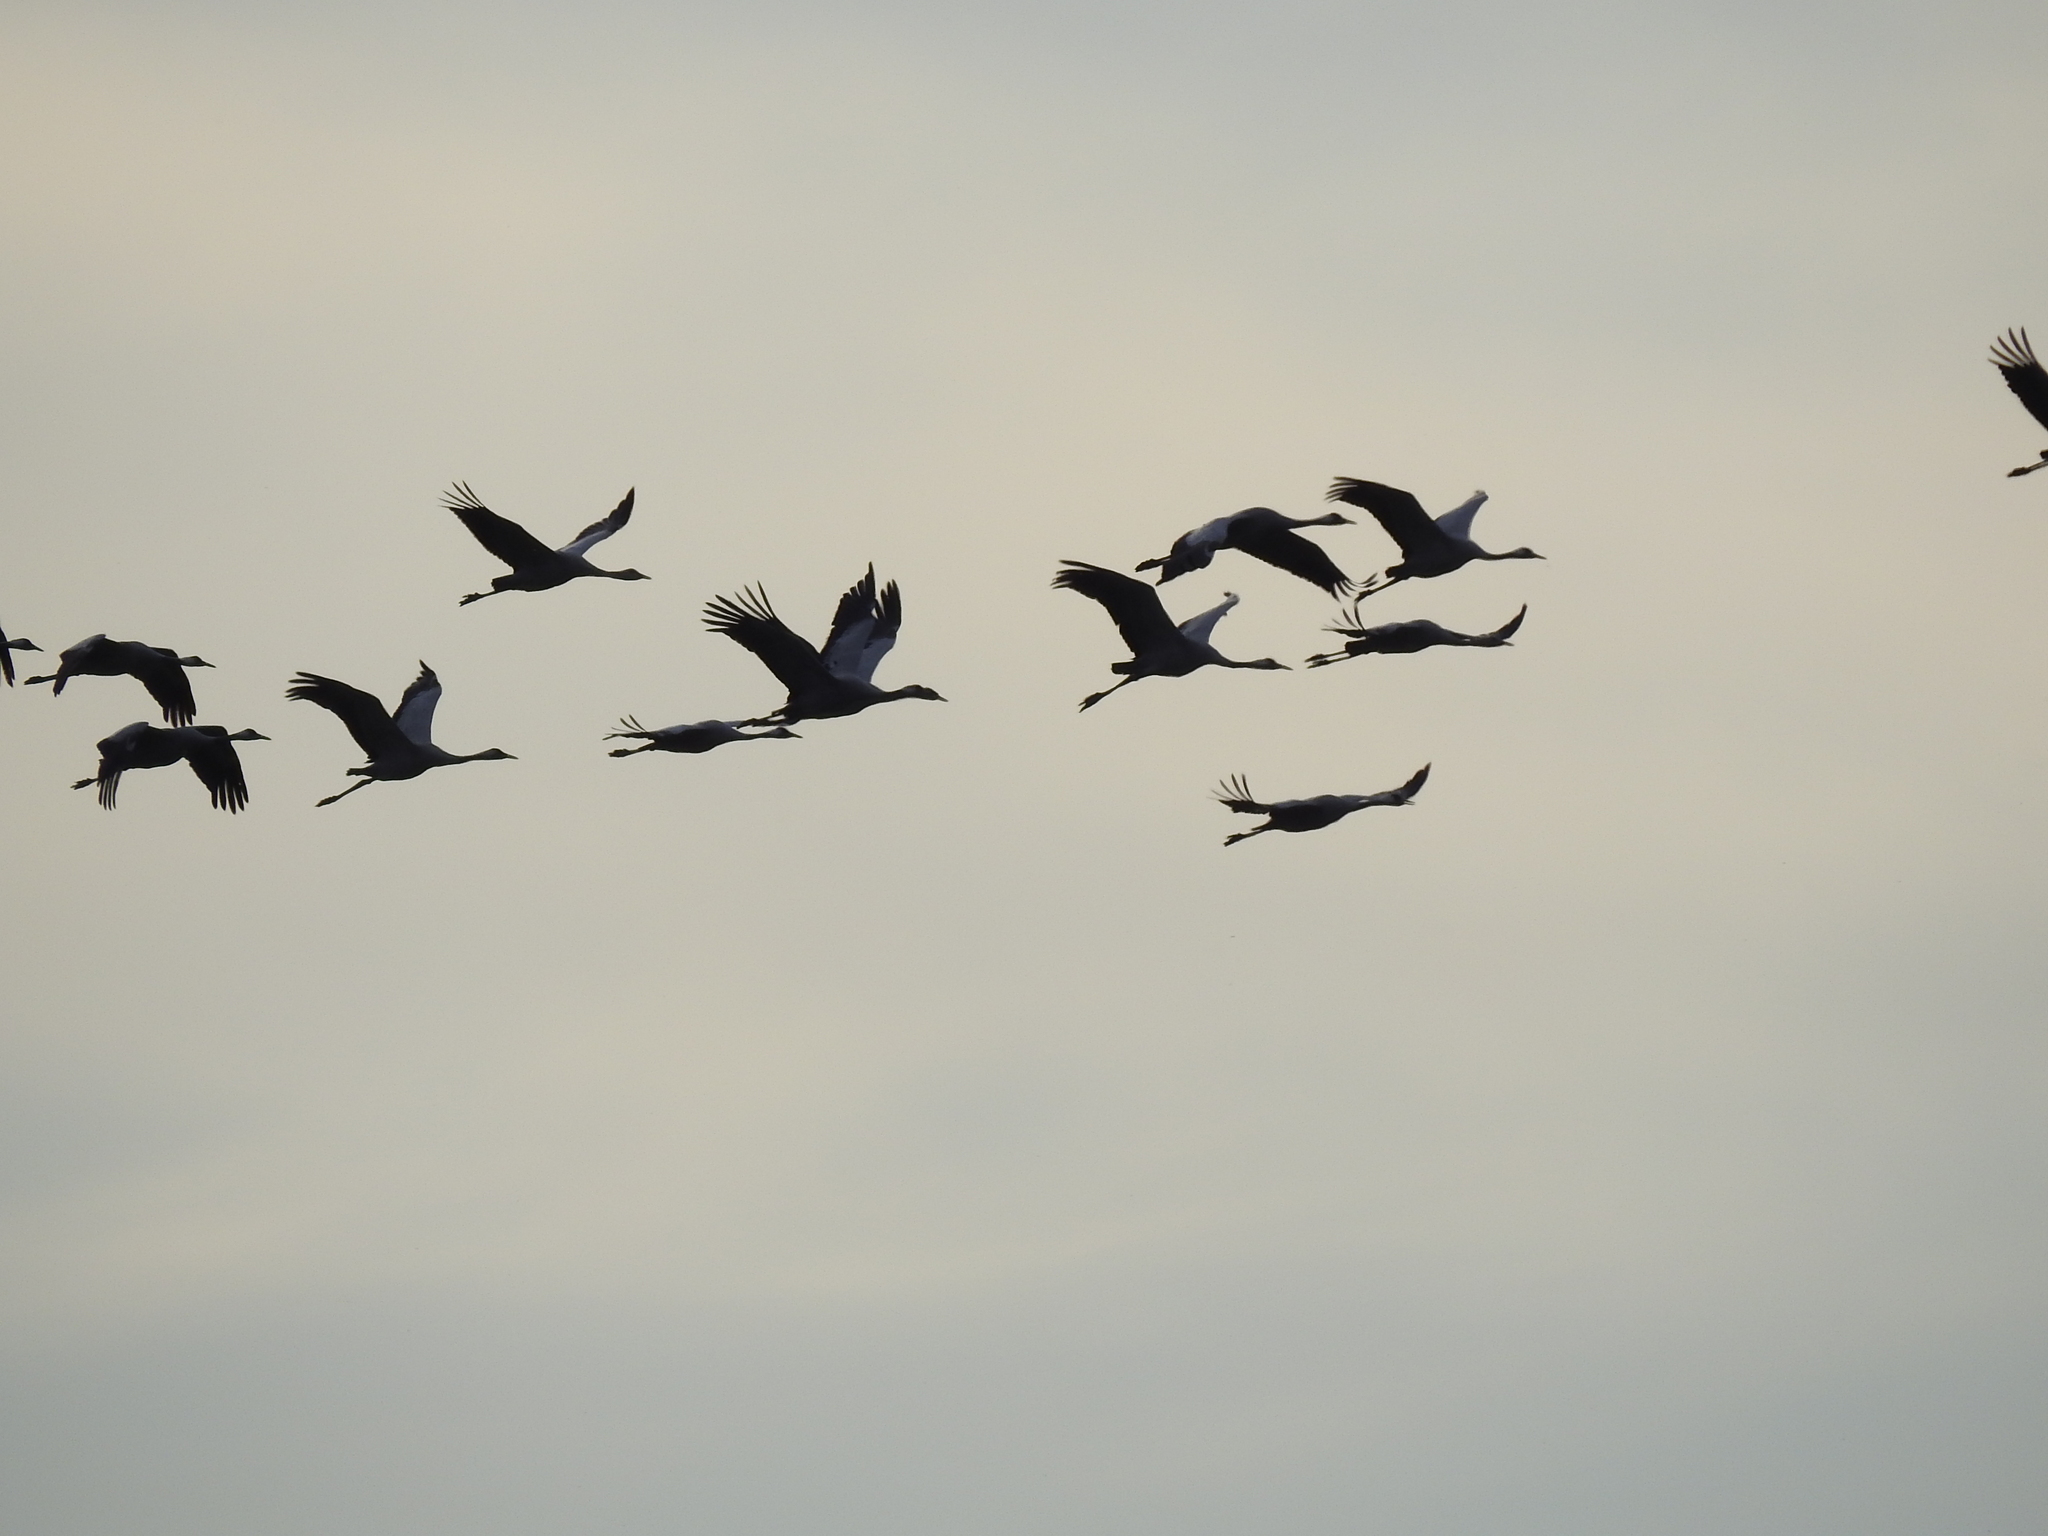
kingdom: Animalia
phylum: Chordata
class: Aves
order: Gruiformes
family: Gruidae
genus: Grus
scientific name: Grus grus
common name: Common crane
